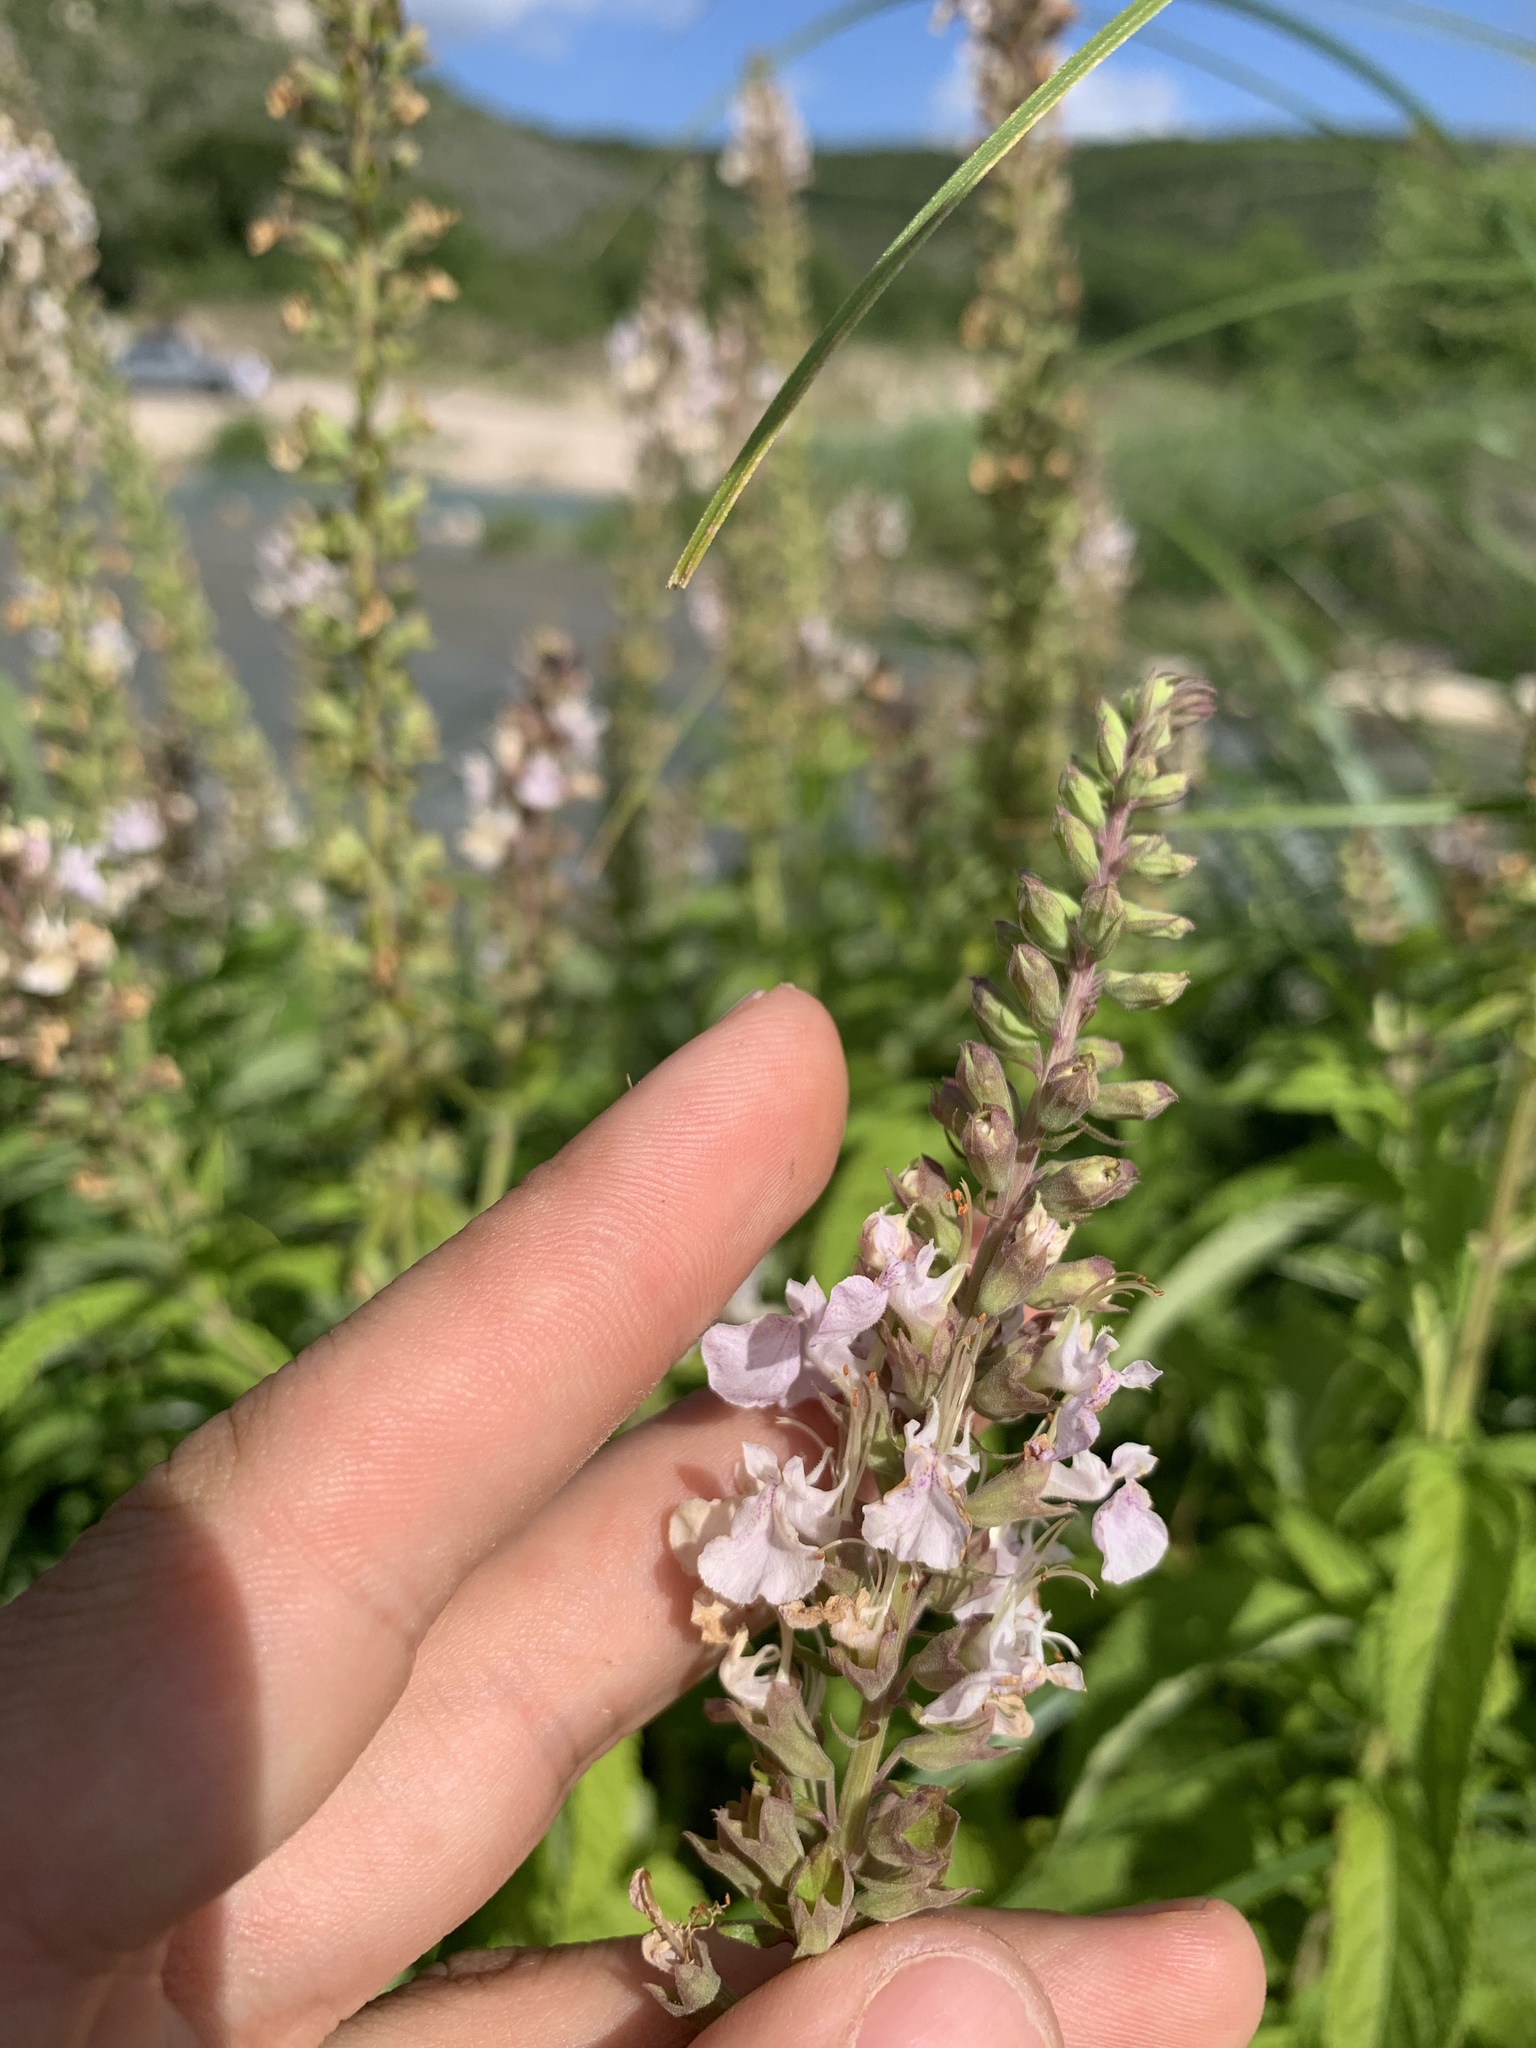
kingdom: Plantae
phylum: Tracheophyta
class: Magnoliopsida
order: Lamiales
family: Lamiaceae
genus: Teucrium
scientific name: Teucrium canadense
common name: American germander
